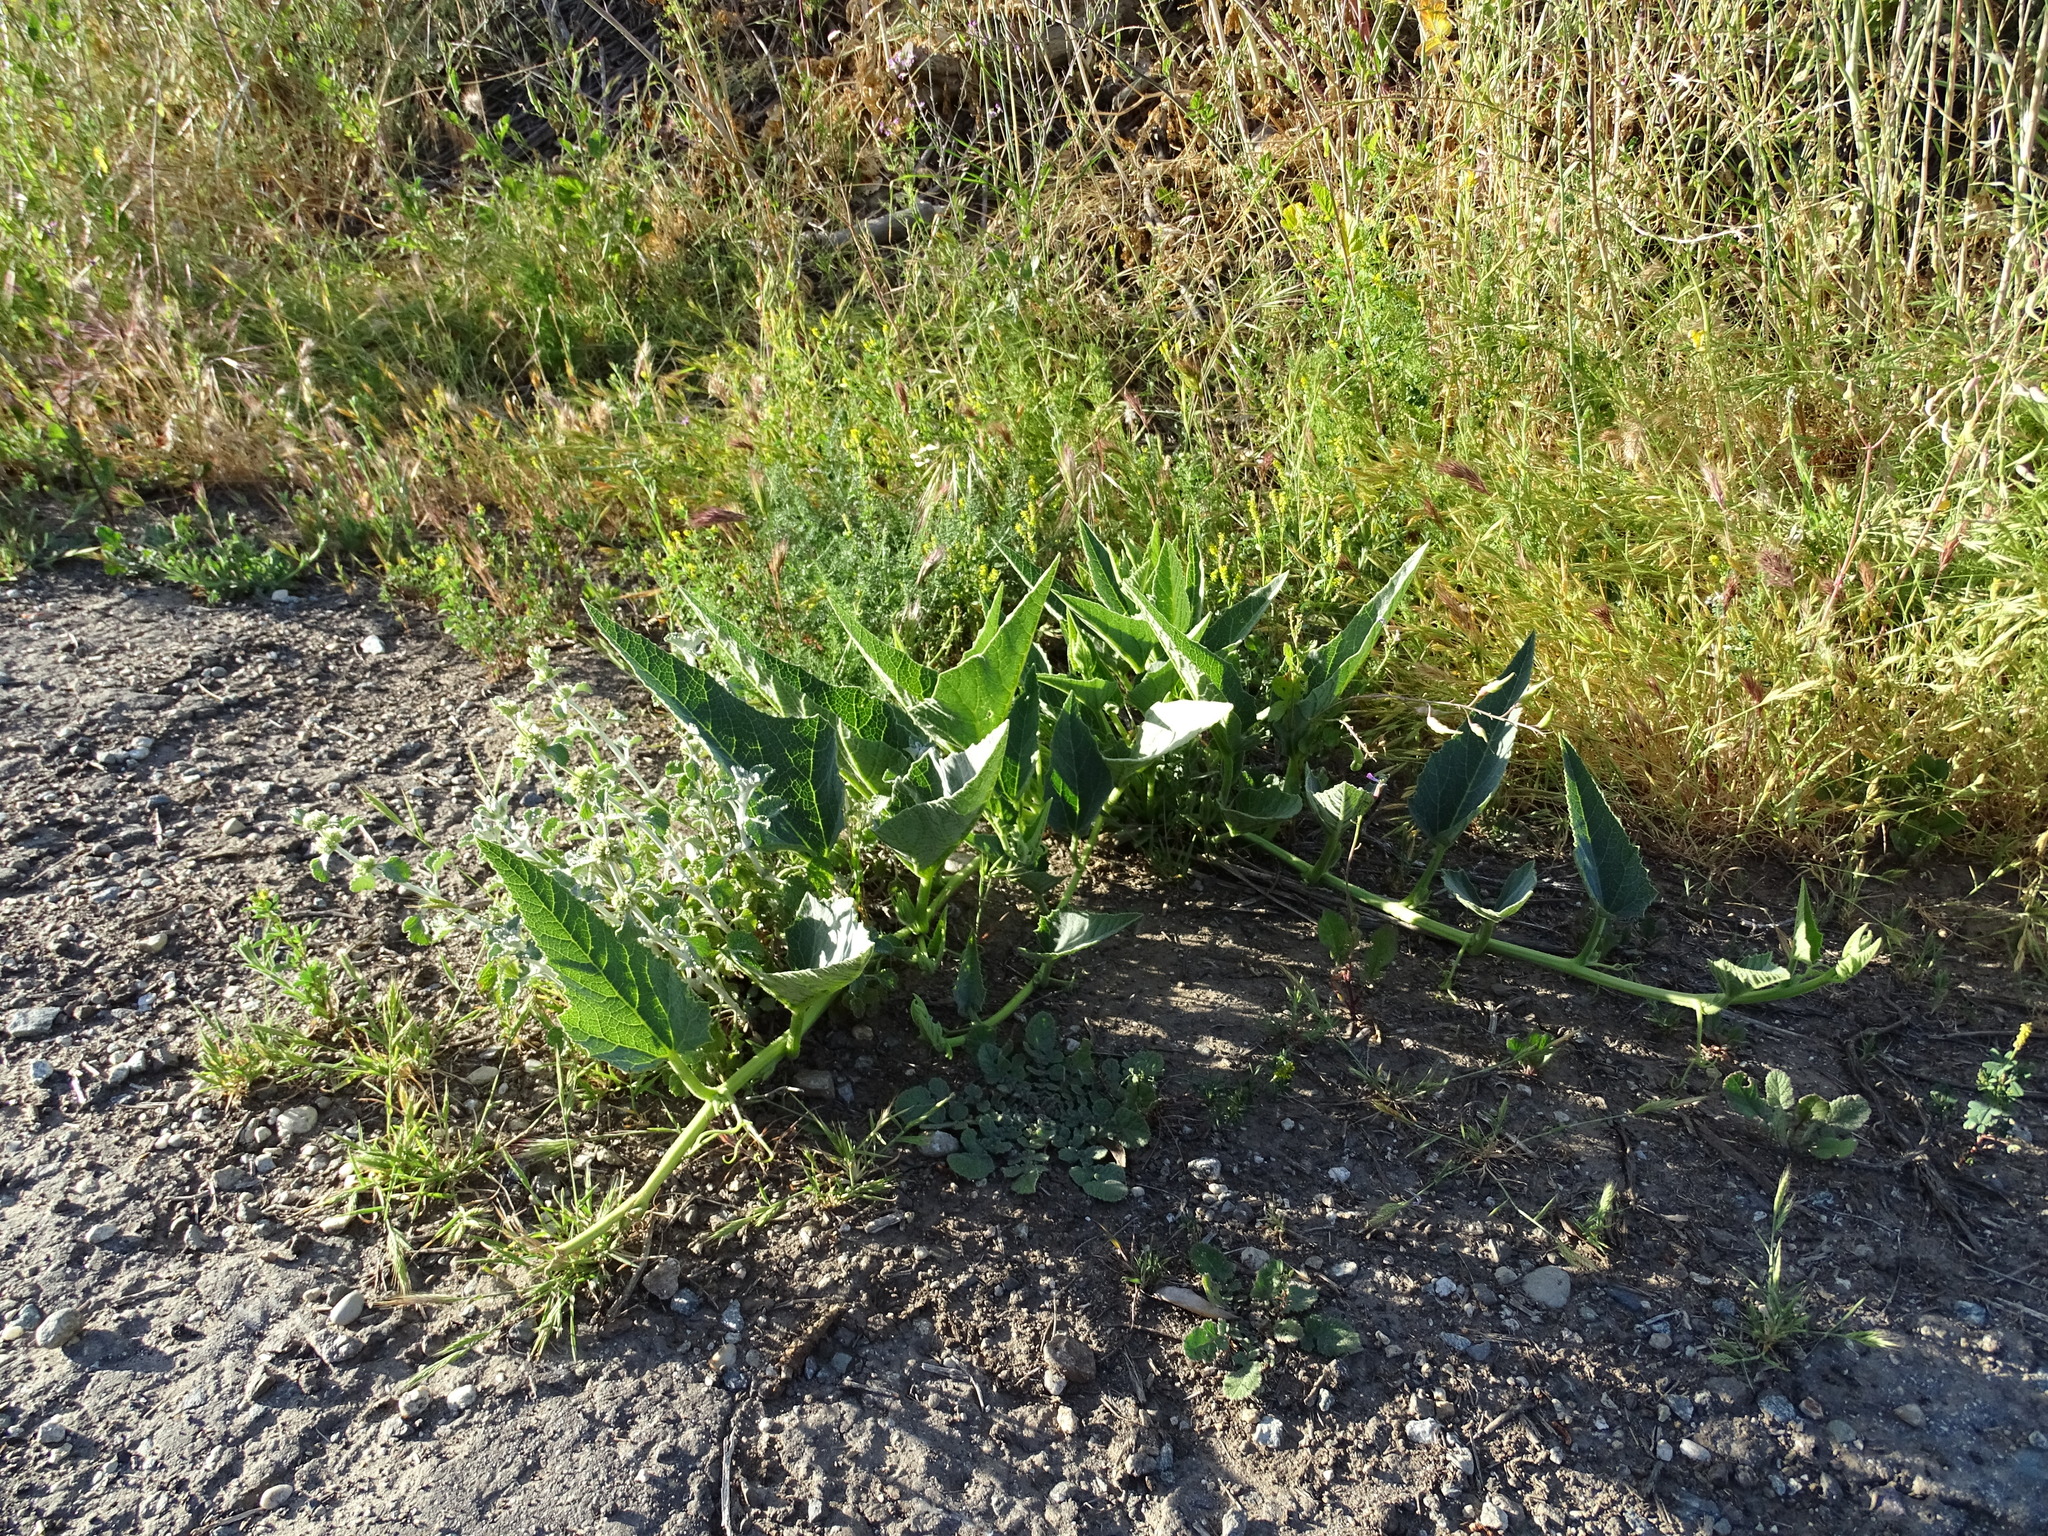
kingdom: Plantae
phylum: Tracheophyta
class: Magnoliopsida
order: Cucurbitales
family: Cucurbitaceae
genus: Cucurbita
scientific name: Cucurbita foetidissima
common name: Buffalo gourd
